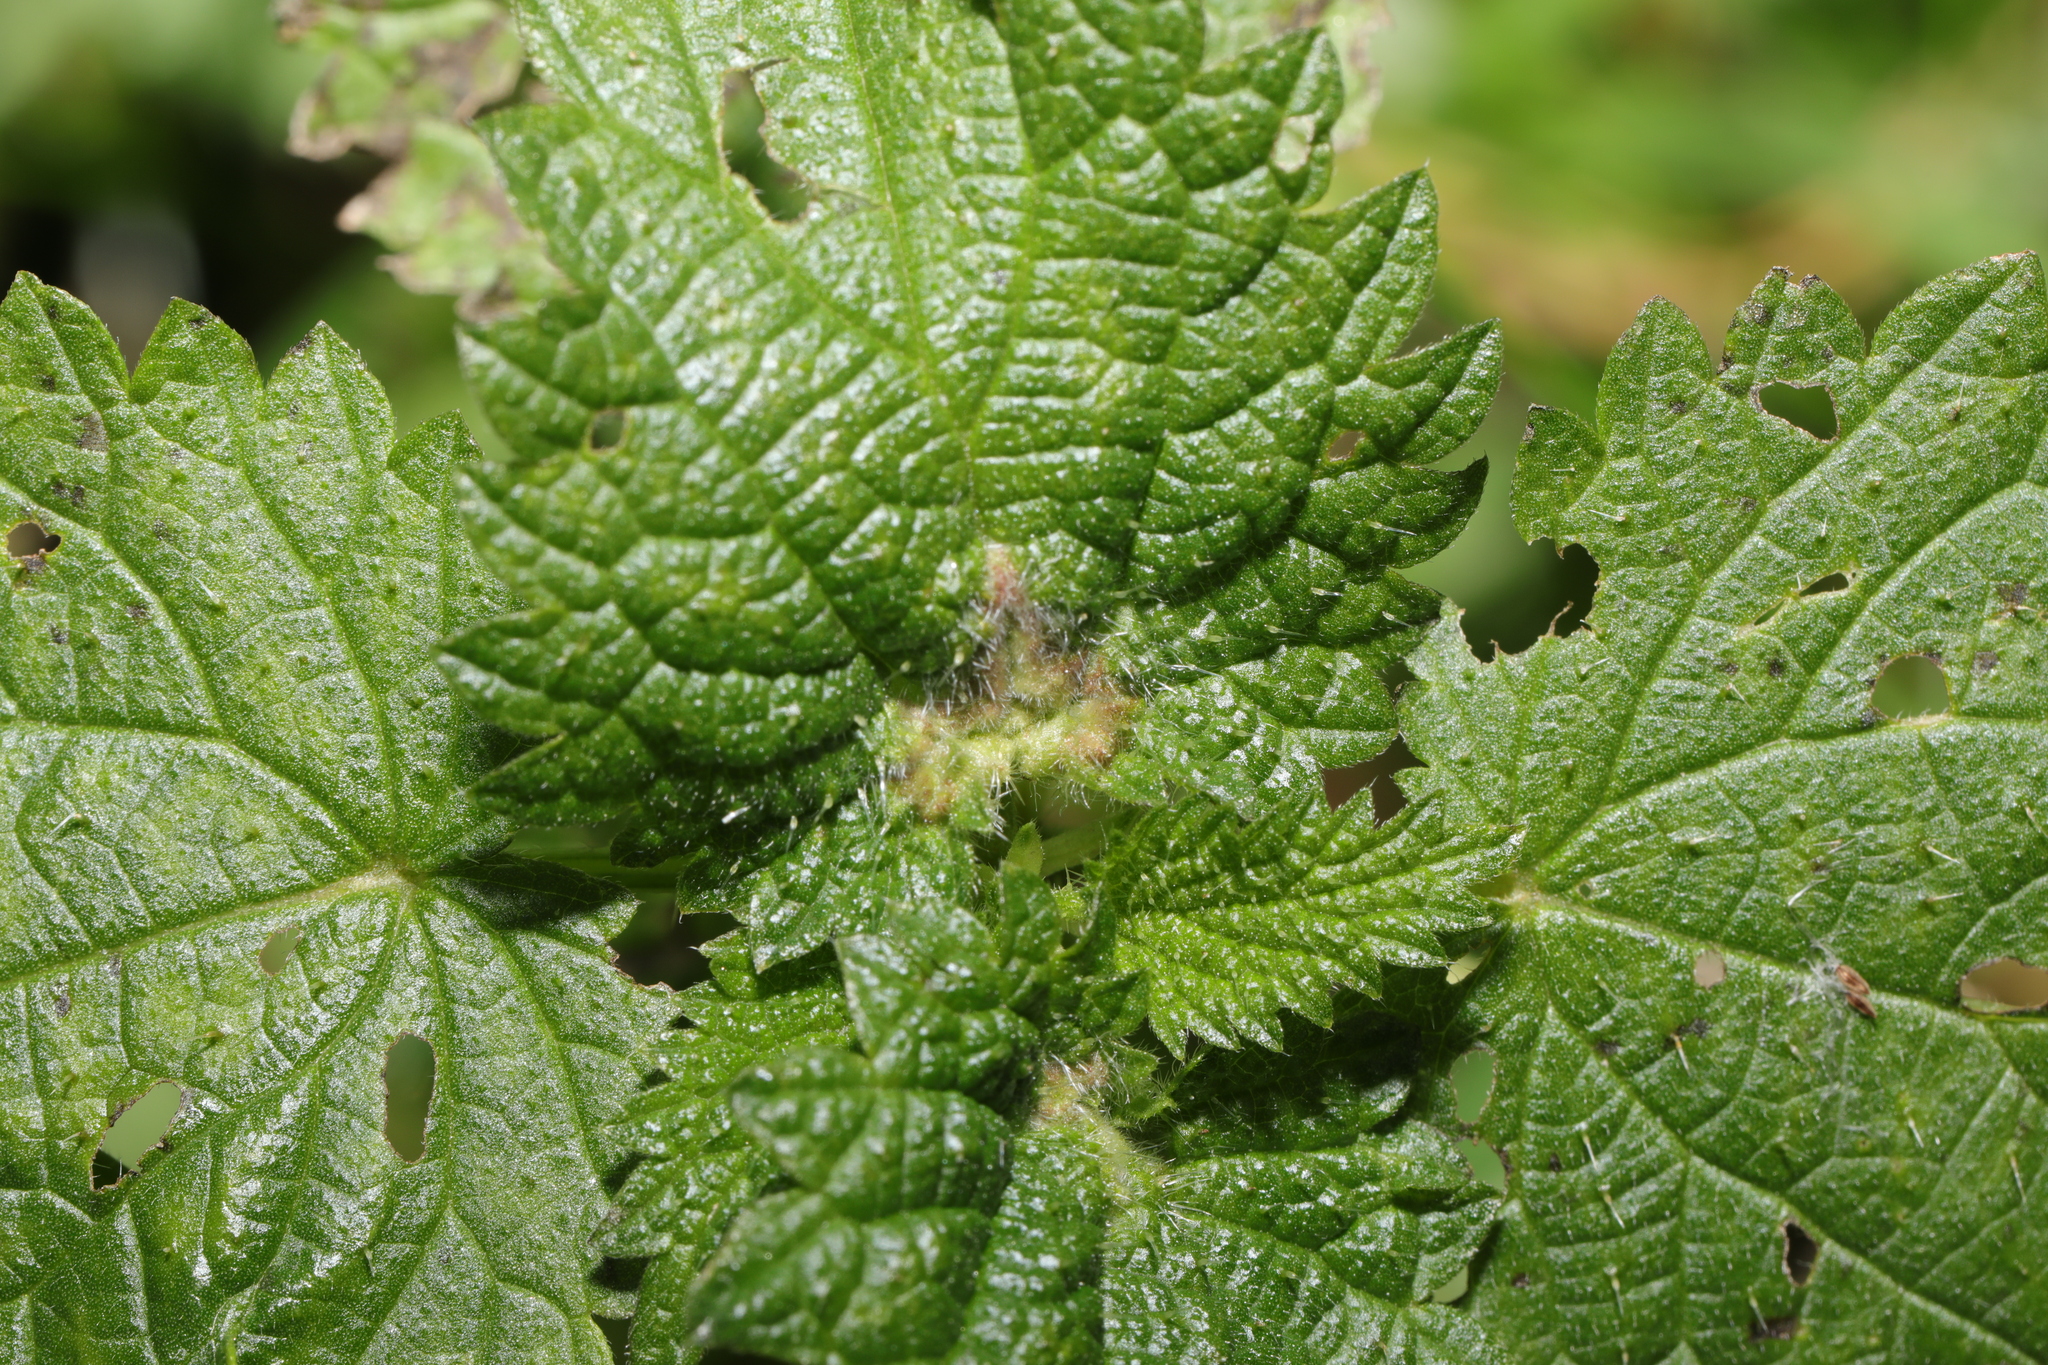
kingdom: Animalia
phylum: Arthropoda
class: Insecta
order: Diptera
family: Cecidomyiidae
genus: Dasineura
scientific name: Dasineura urticae
